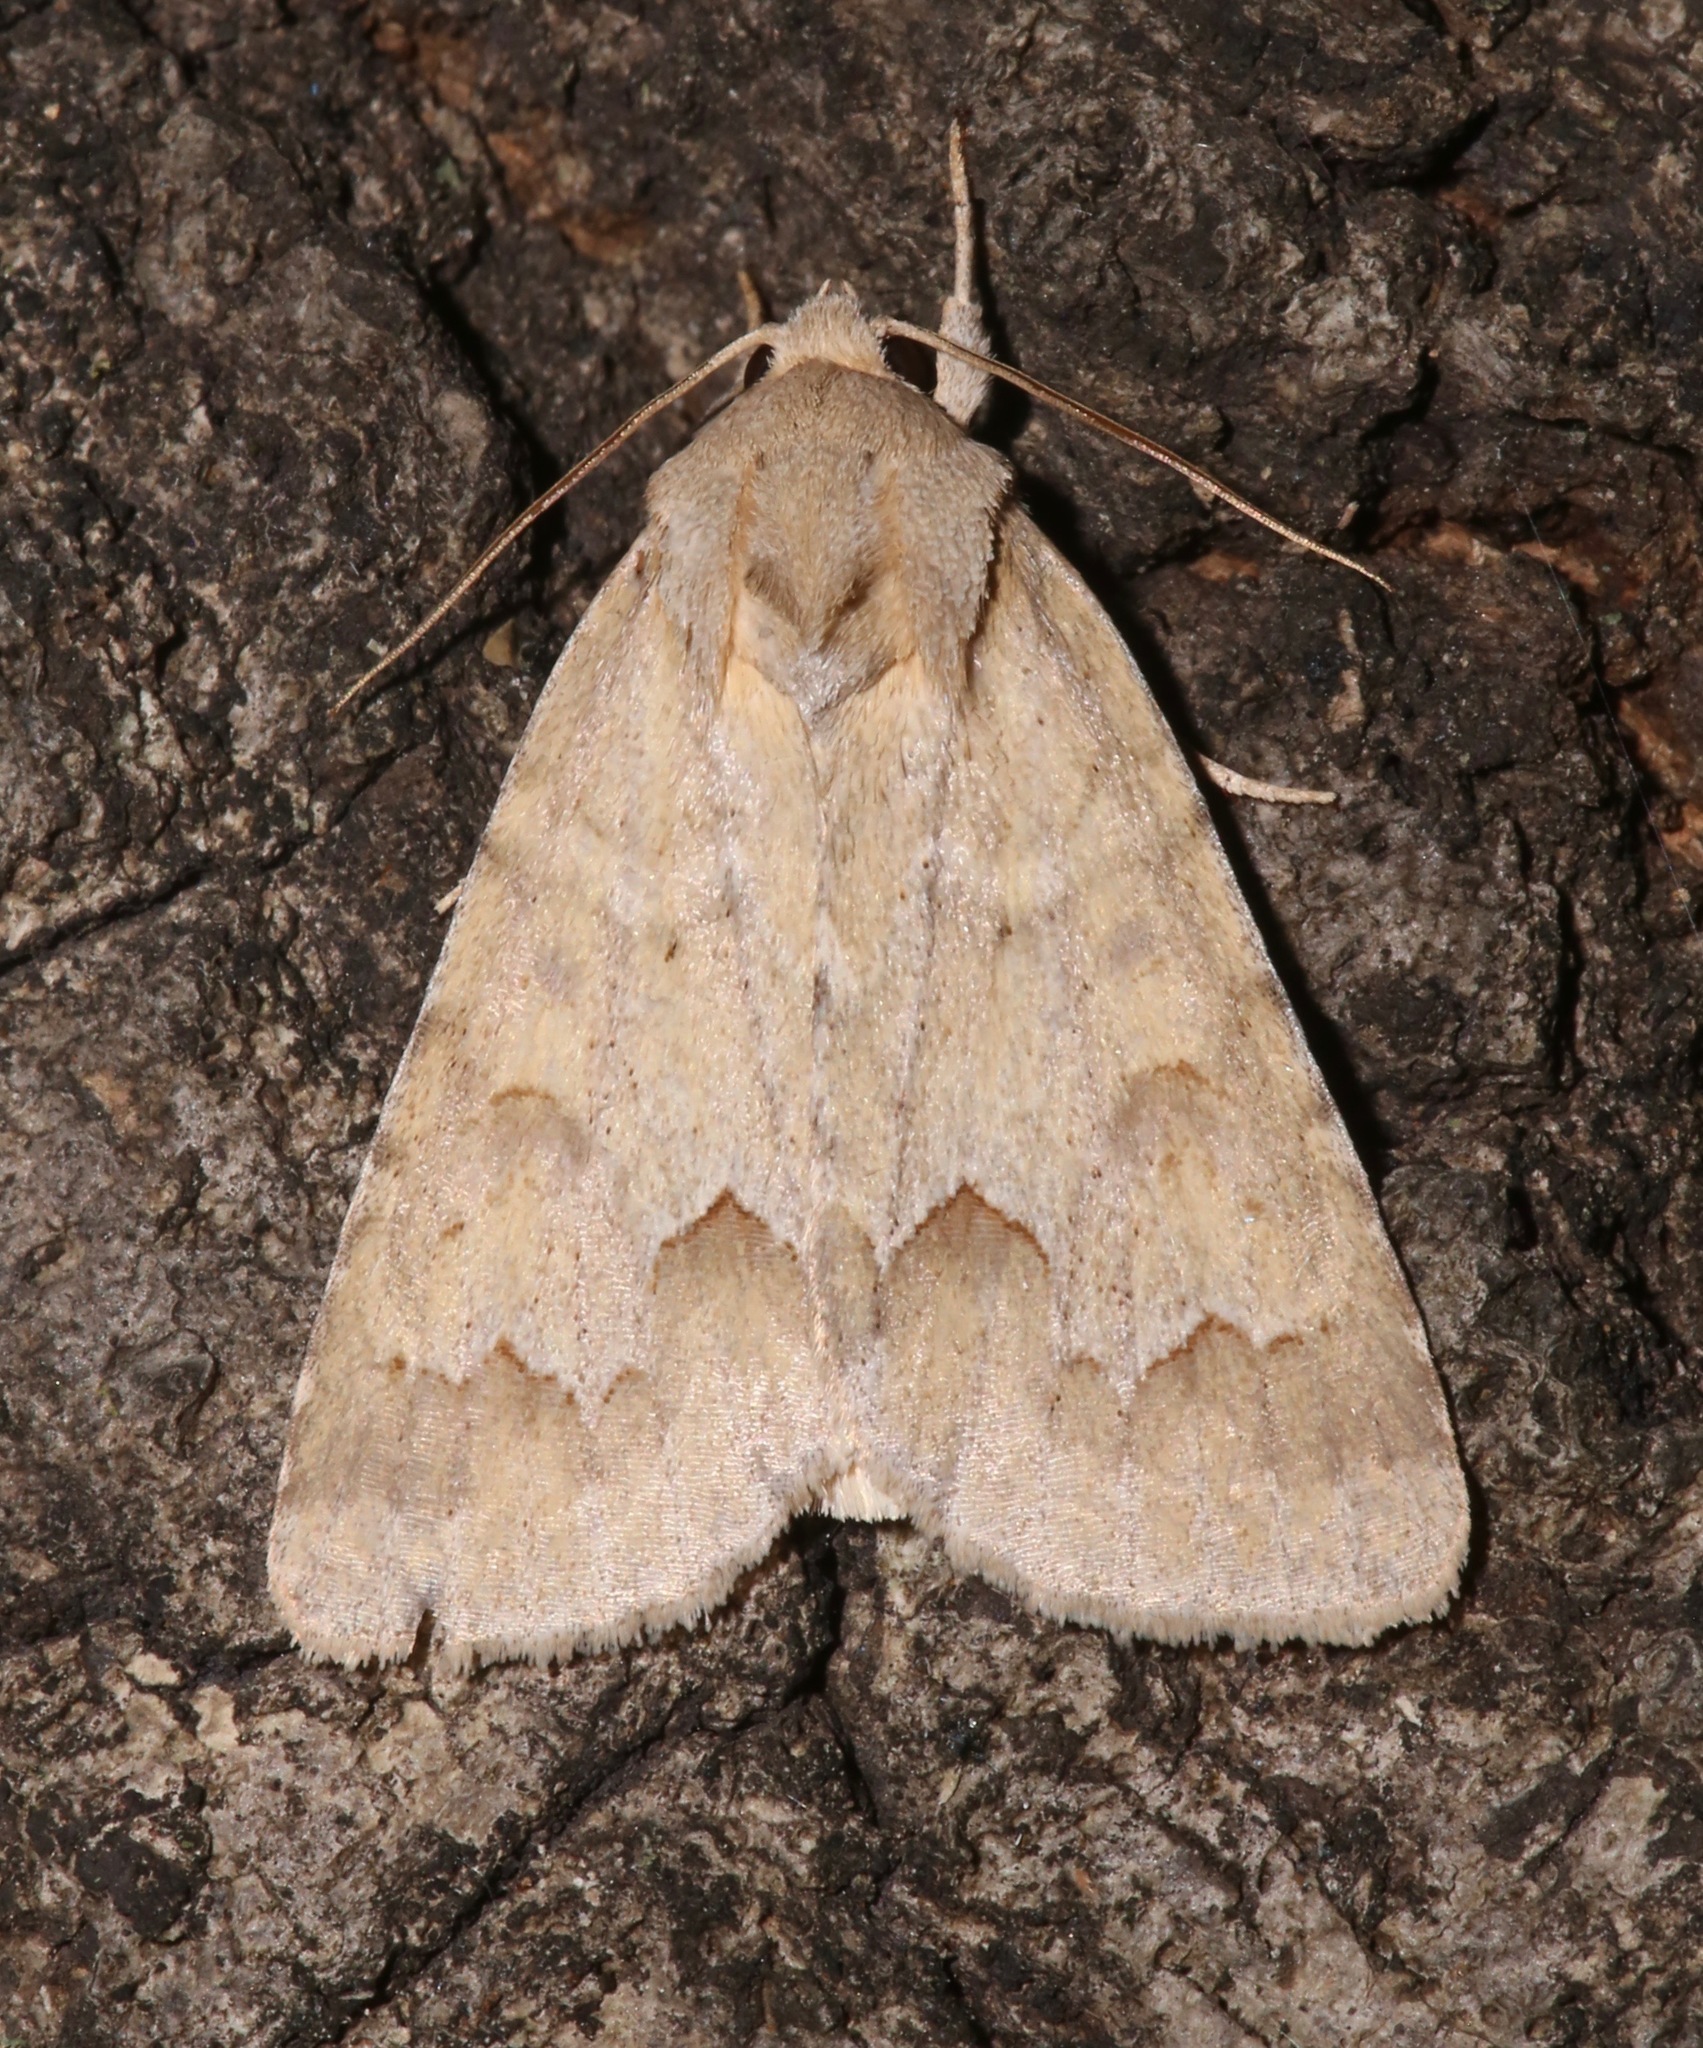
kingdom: Animalia
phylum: Arthropoda
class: Insecta
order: Lepidoptera
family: Noctuidae
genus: Acronicta
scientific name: Acronicta betulae
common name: Birch dagger moth
